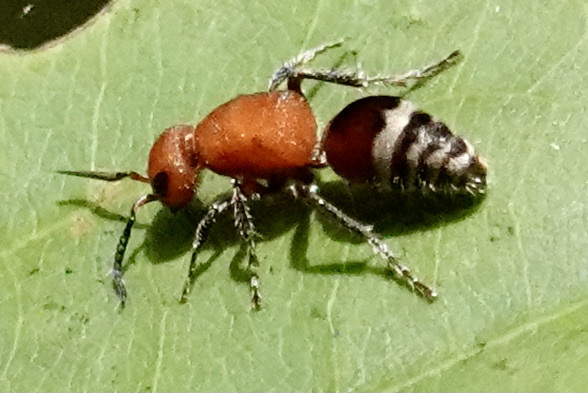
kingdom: Animalia
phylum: Arthropoda
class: Insecta
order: Hymenoptera
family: Mutillidae
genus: Timulla
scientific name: Timulla
